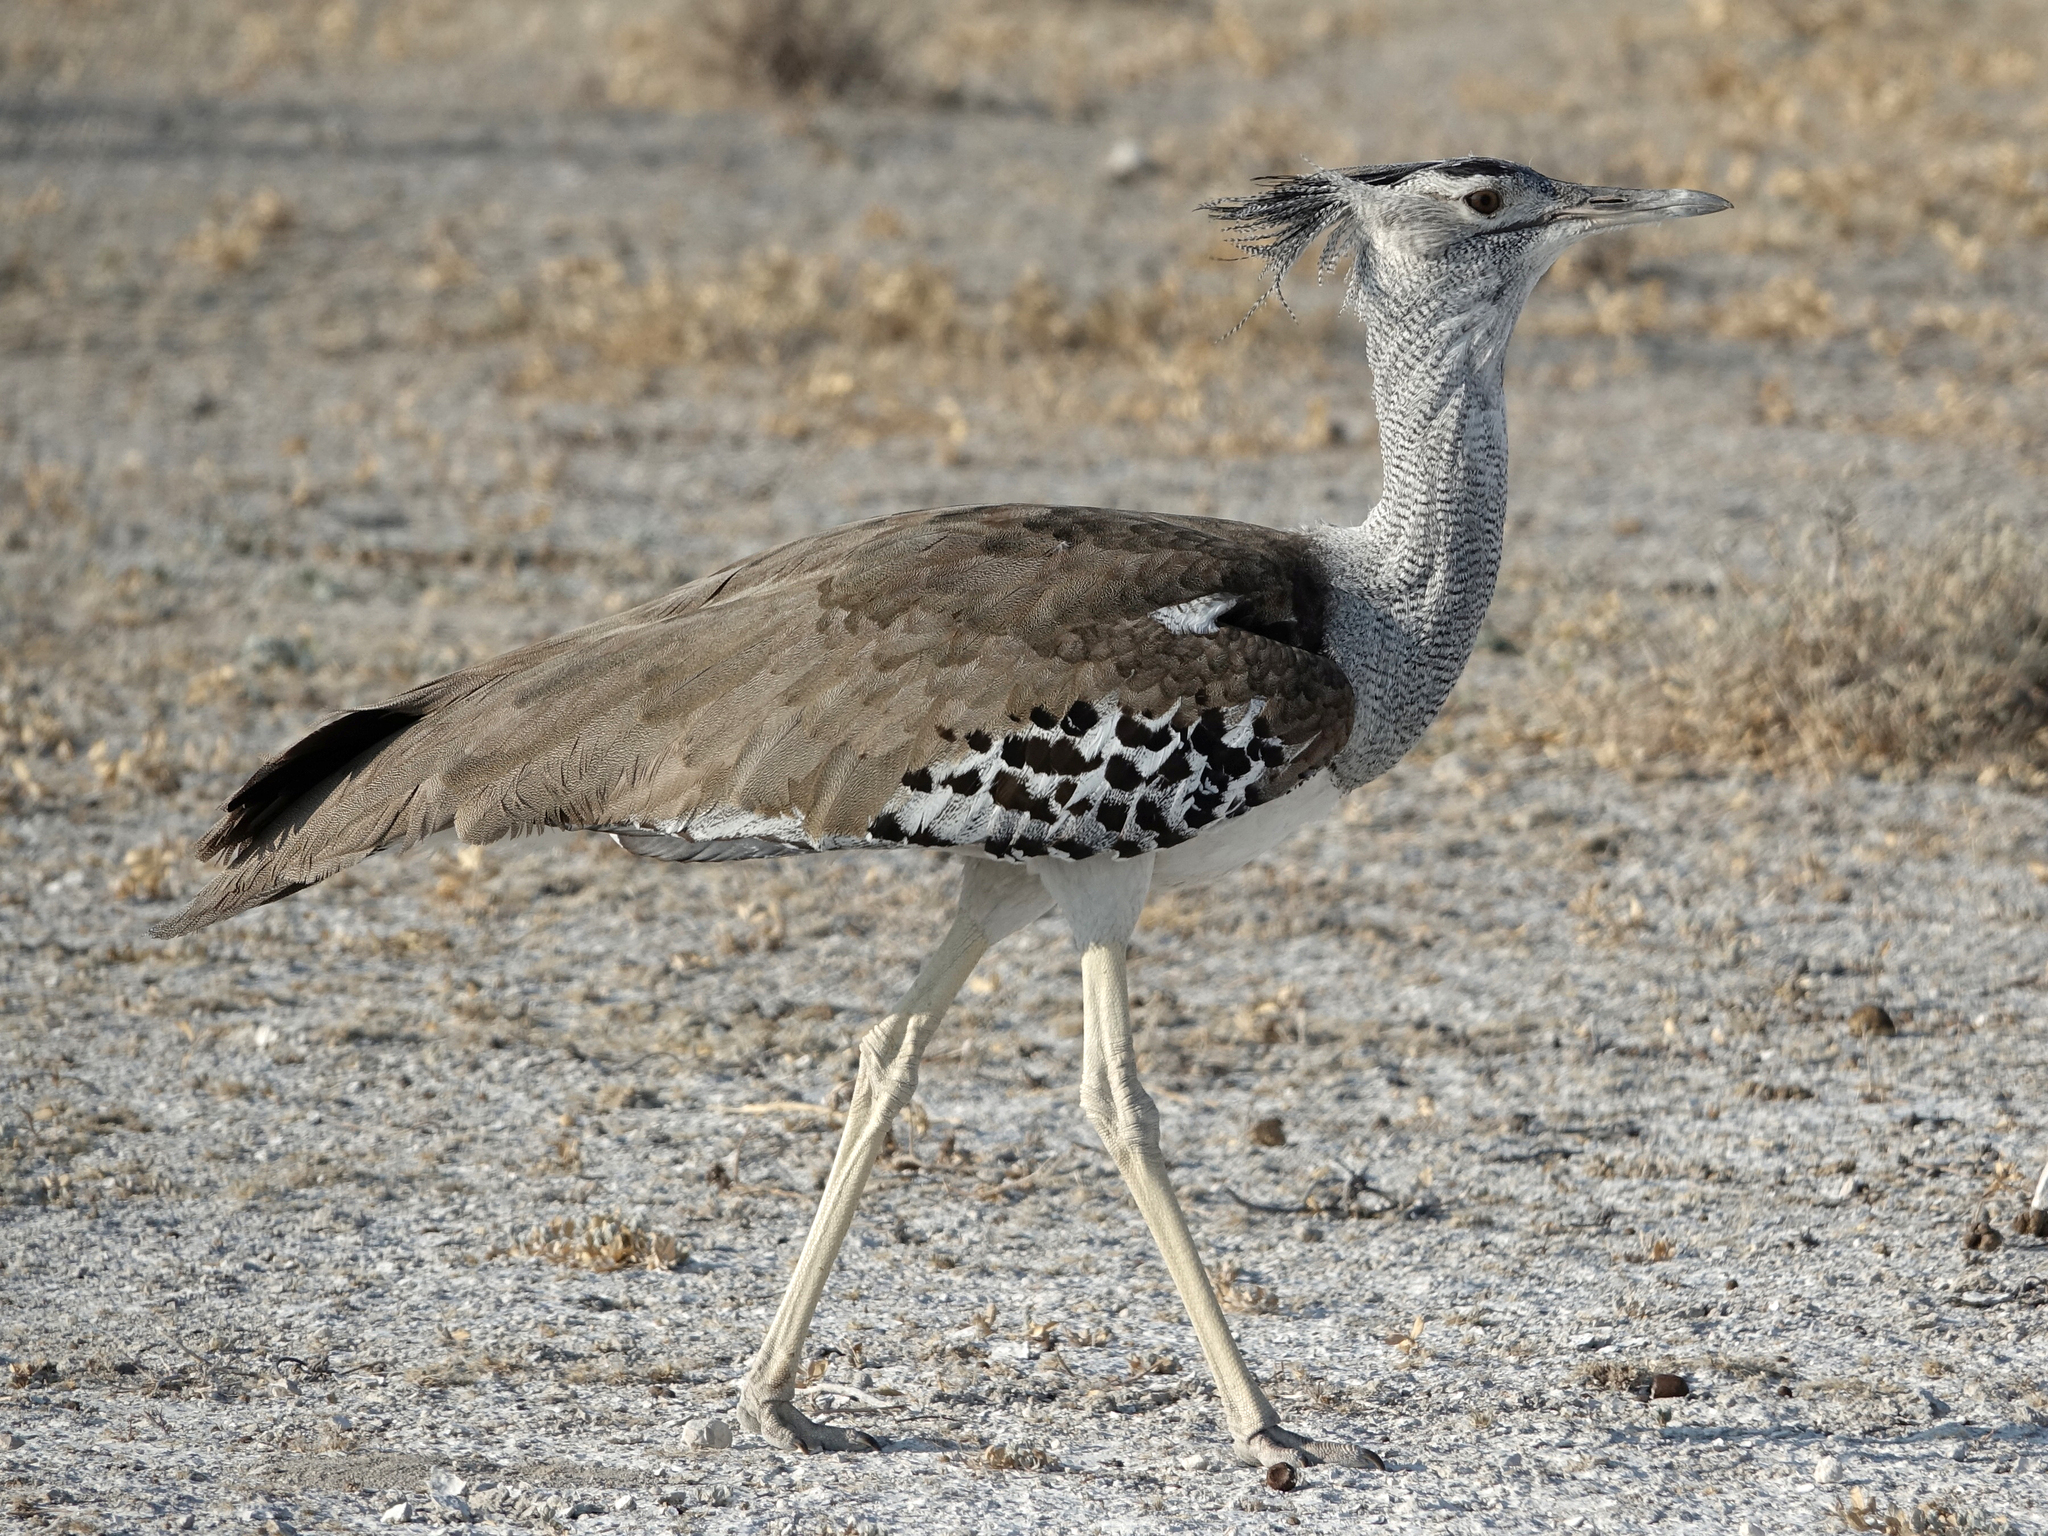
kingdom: Animalia
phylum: Chordata
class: Aves
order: Otidiformes
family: Otididae
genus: Ardeotis
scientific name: Ardeotis kori
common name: Kori bustard
